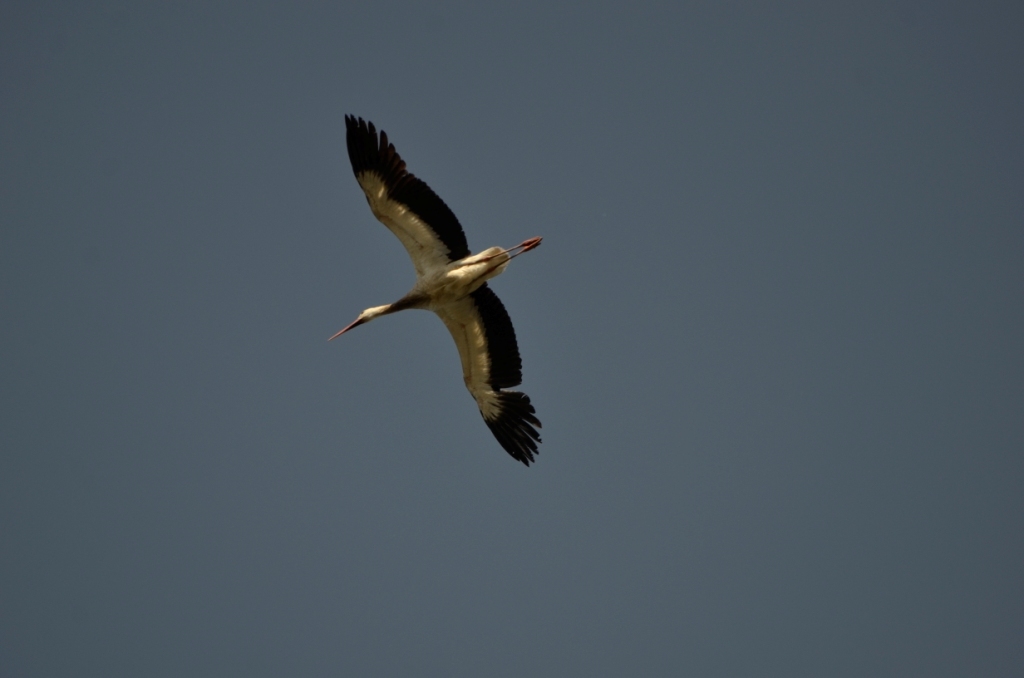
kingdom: Animalia
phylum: Chordata
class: Aves
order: Ciconiiformes
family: Ciconiidae
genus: Ciconia
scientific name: Ciconia ciconia
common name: White stork
